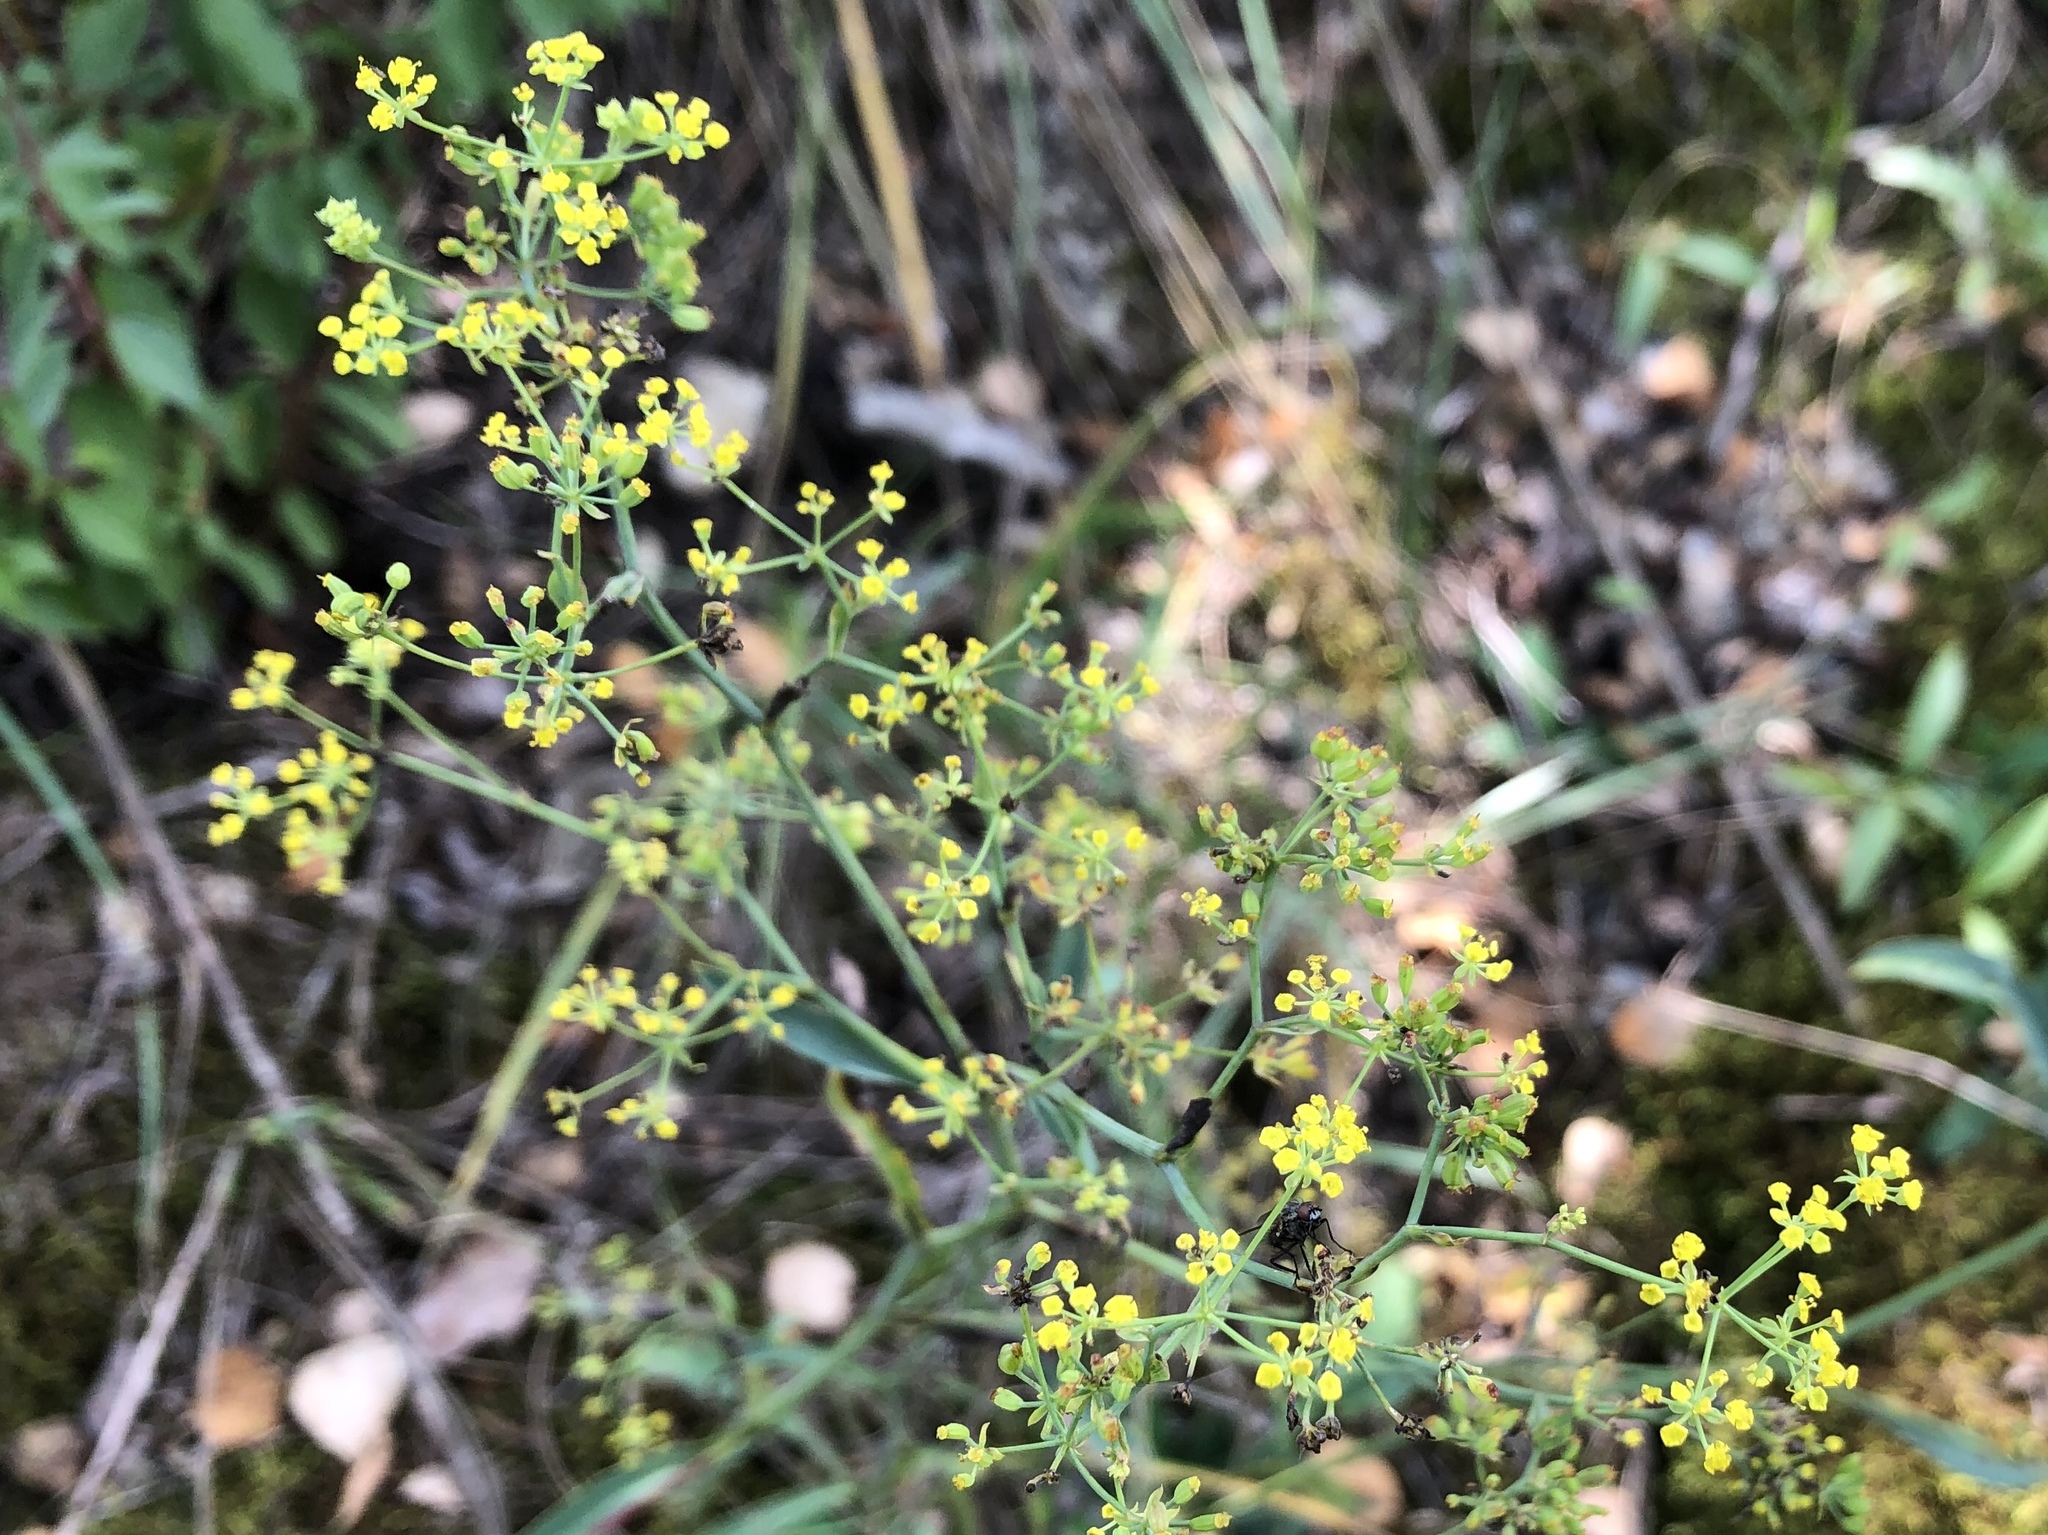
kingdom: Plantae
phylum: Tracheophyta
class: Magnoliopsida
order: Apiales
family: Apiaceae
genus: Bupleurum
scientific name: Bupleurum falcatum
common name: Sickle-leaved hare's-ear
